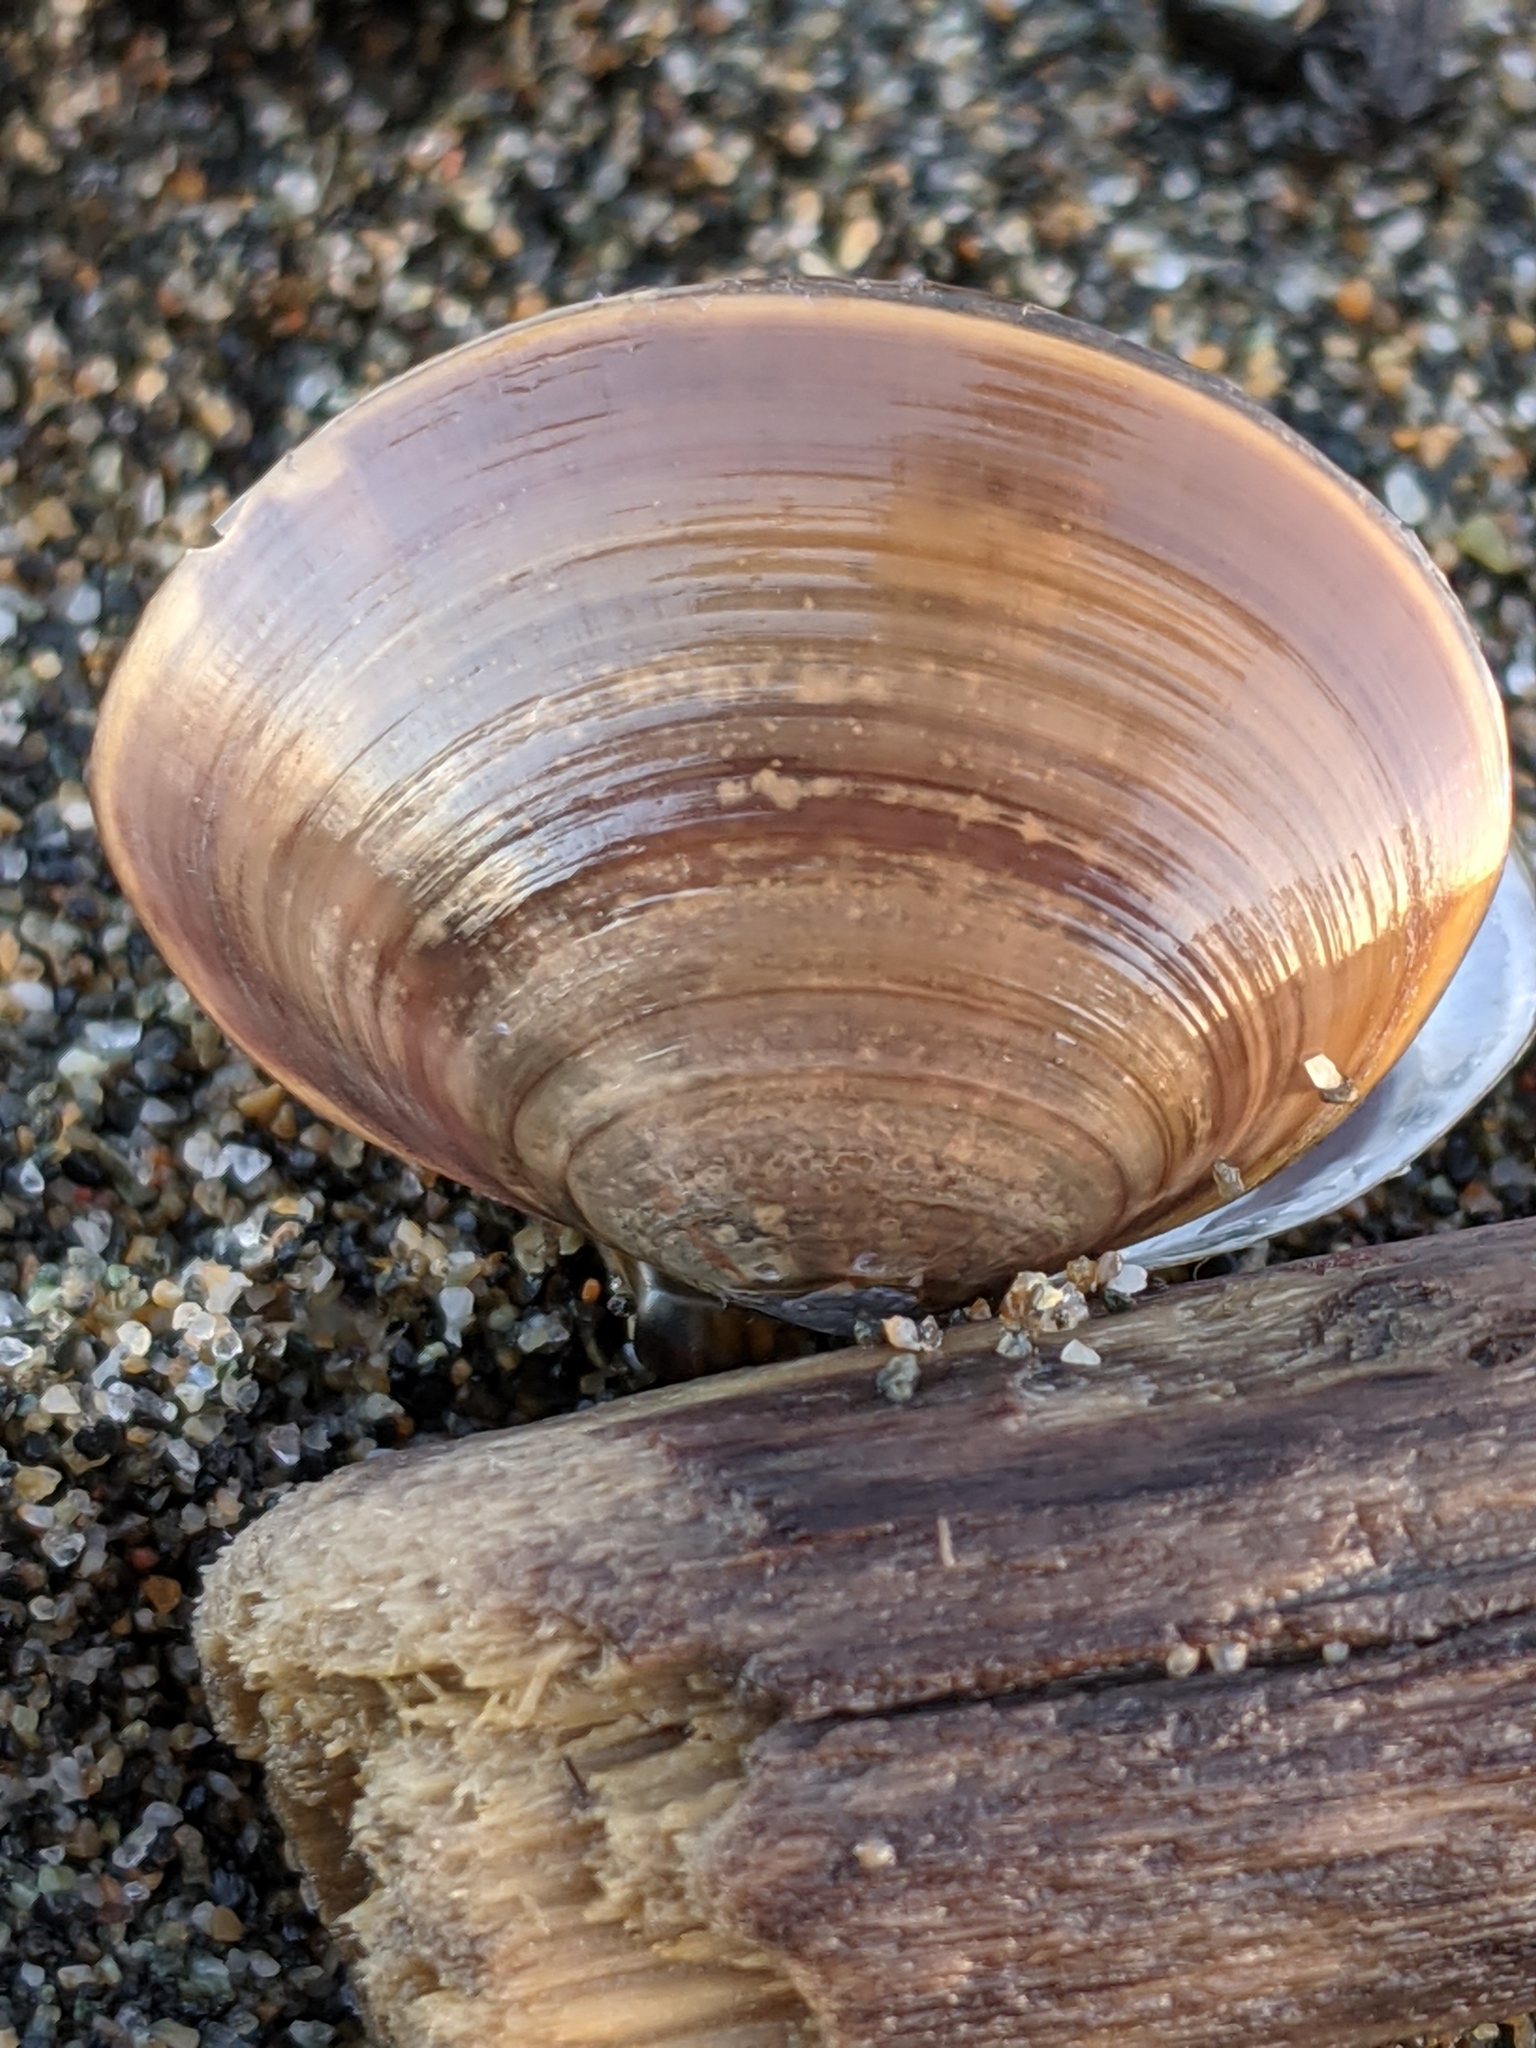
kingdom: Animalia
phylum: Mollusca
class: Bivalvia
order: Cardiida
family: Psammobiidae
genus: Nuttallia
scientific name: Nuttallia obscurata
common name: Purple mahogany-clam
